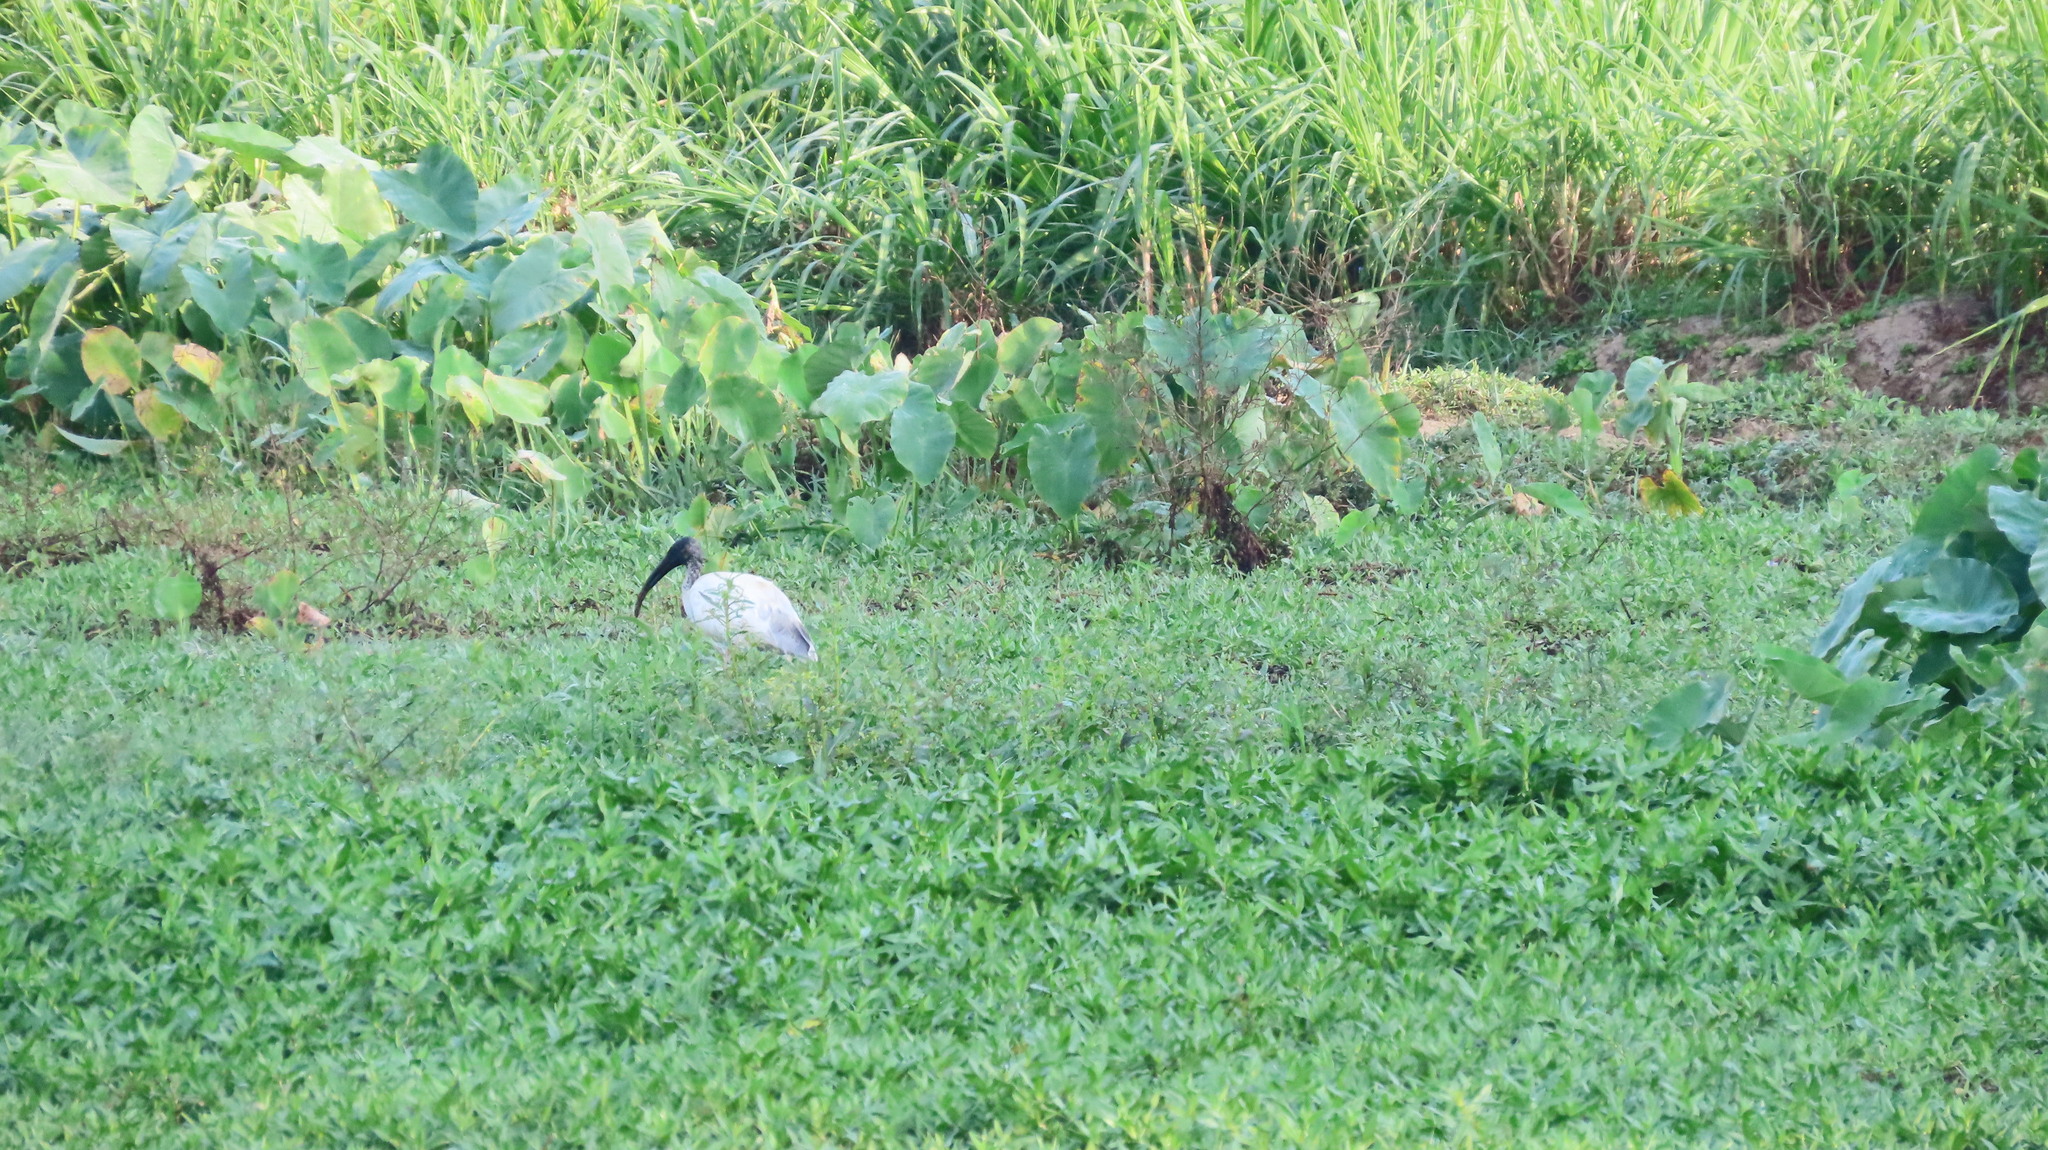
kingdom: Animalia
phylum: Chordata
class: Aves
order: Pelecaniformes
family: Threskiornithidae
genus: Threskiornis
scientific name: Threskiornis melanocephalus
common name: Black-headed ibis
